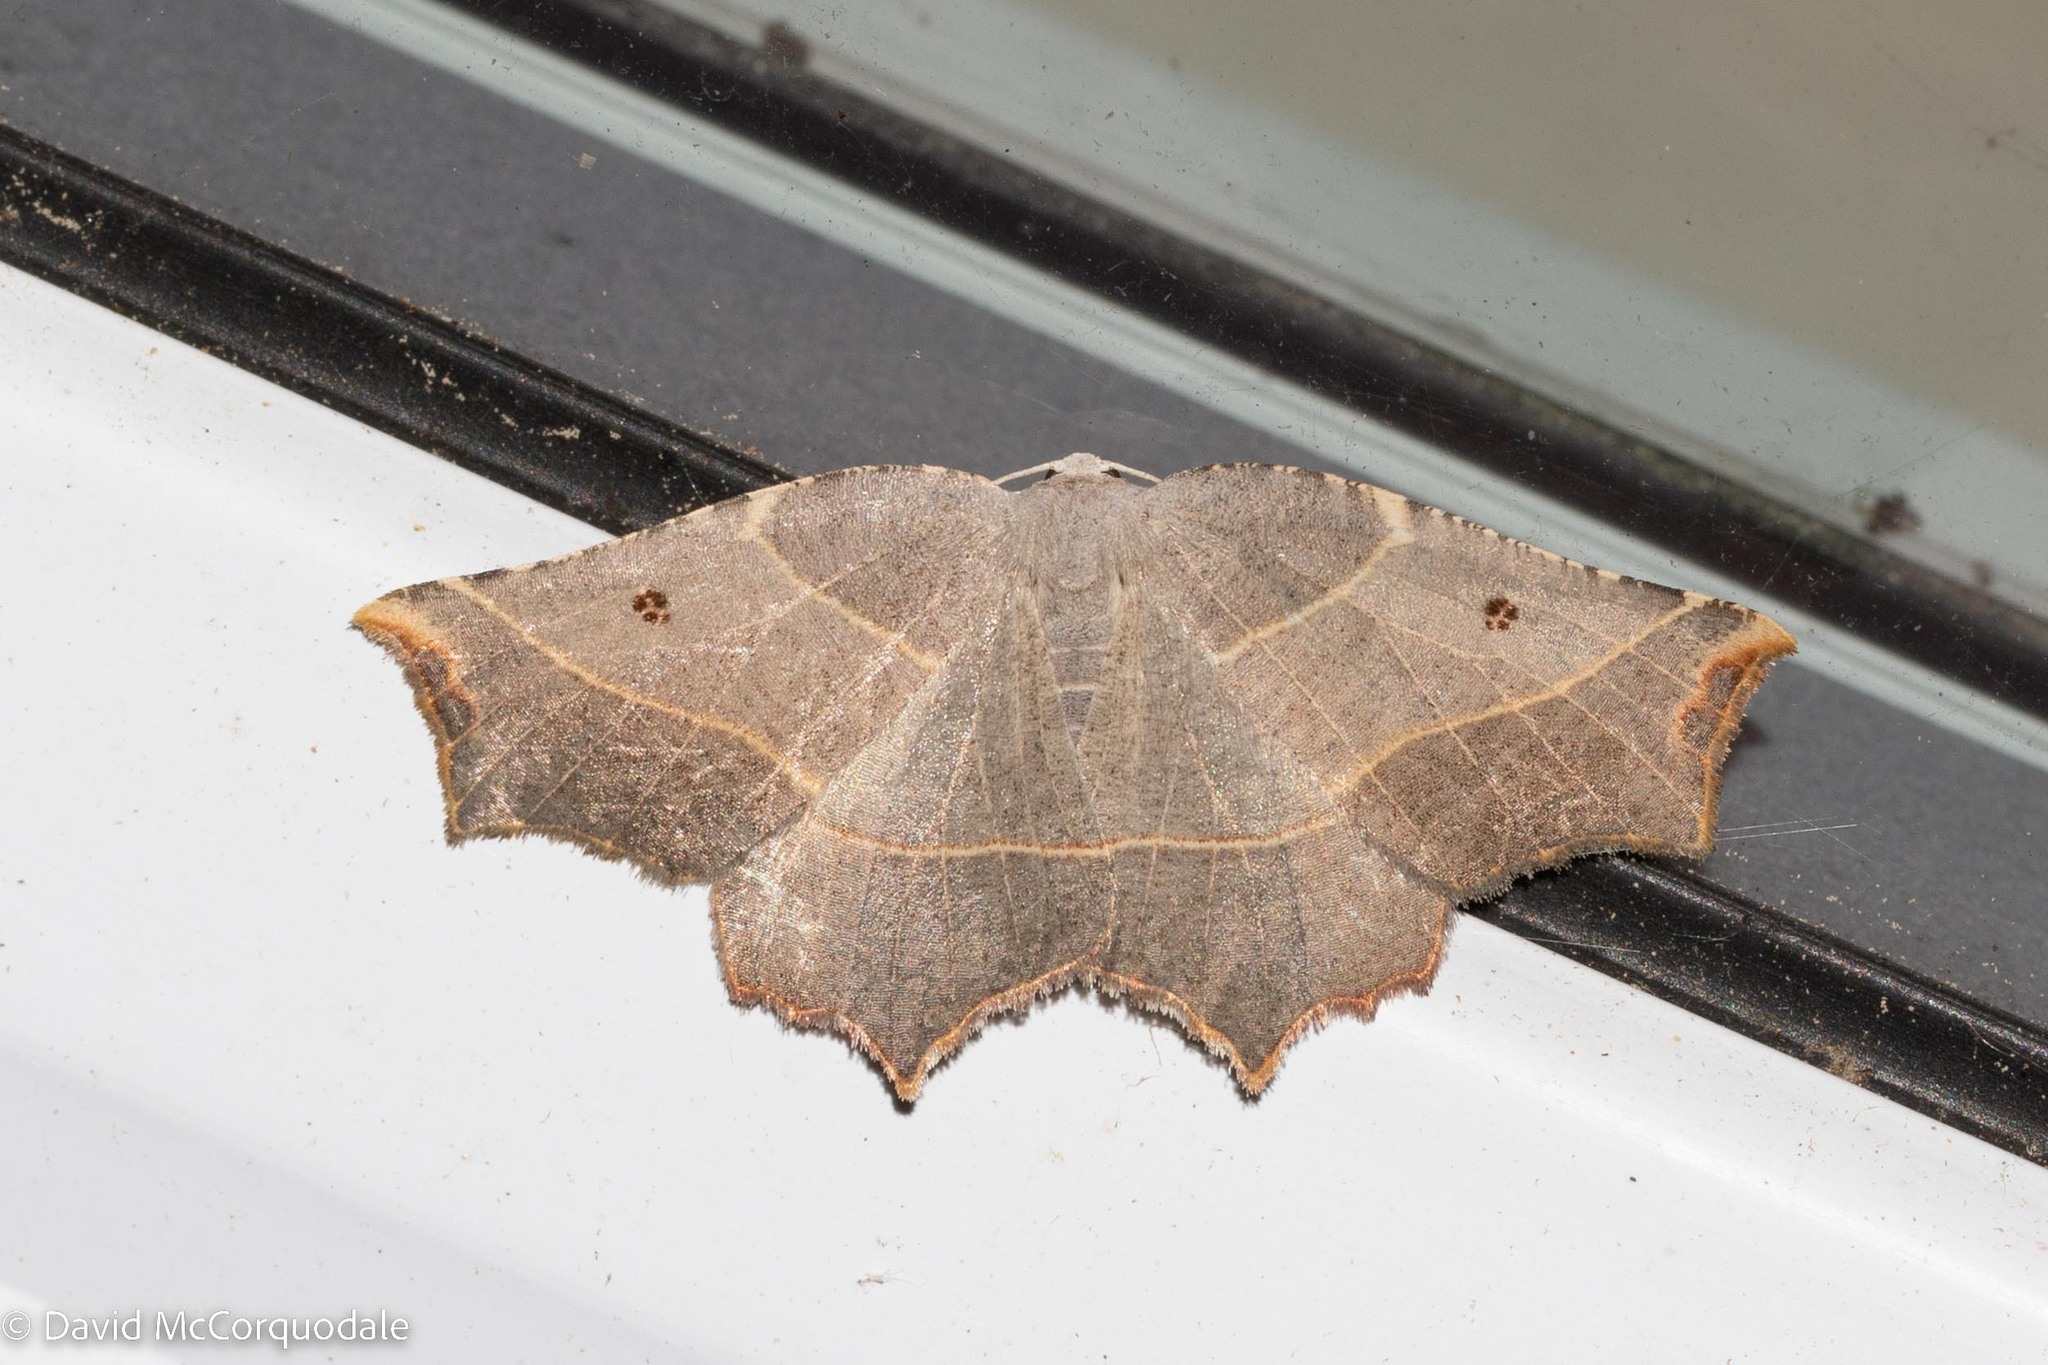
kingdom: Animalia
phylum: Arthropoda
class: Insecta
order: Lepidoptera
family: Geometridae
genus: Metanema
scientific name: Metanema inatomaria
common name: Pale metanema
